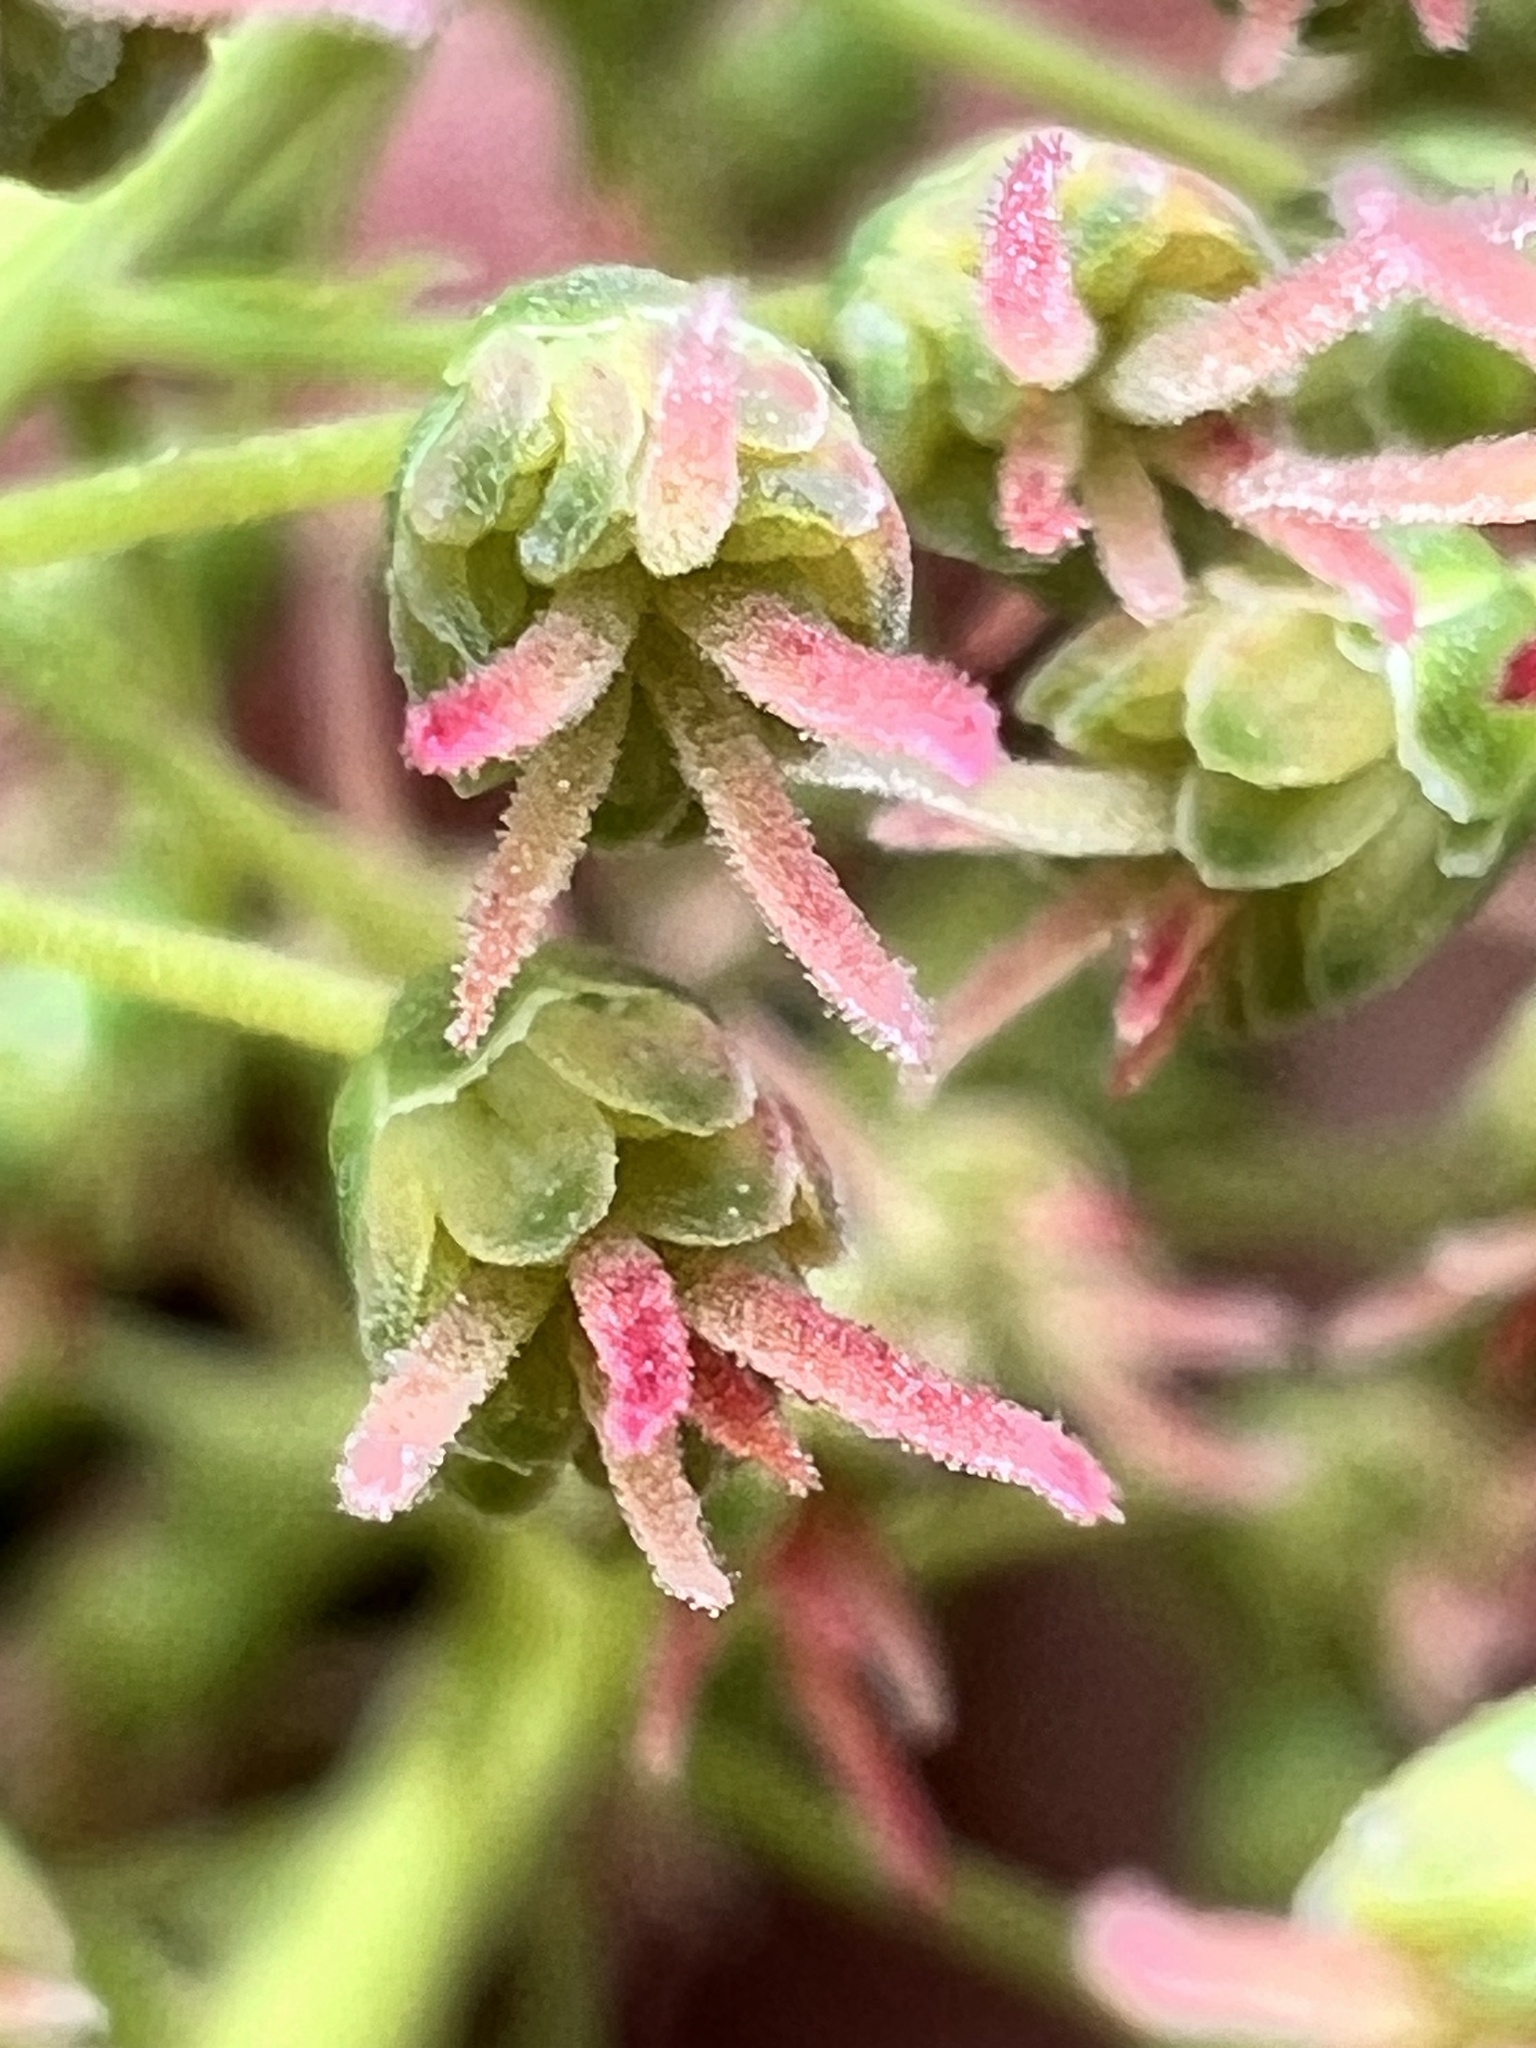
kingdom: Plantae
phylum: Tracheophyta
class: Magnoliopsida
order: Cucurbitales
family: Coriariaceae
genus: Coriaria
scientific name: Coriaria arborea
